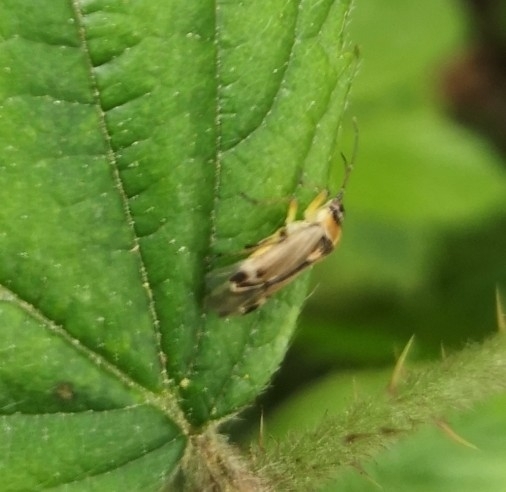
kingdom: Animalia
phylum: Arthropoda
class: Insecta
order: Hemiptera
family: Miridae
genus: Harpocera
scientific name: Harpocera thoracica
